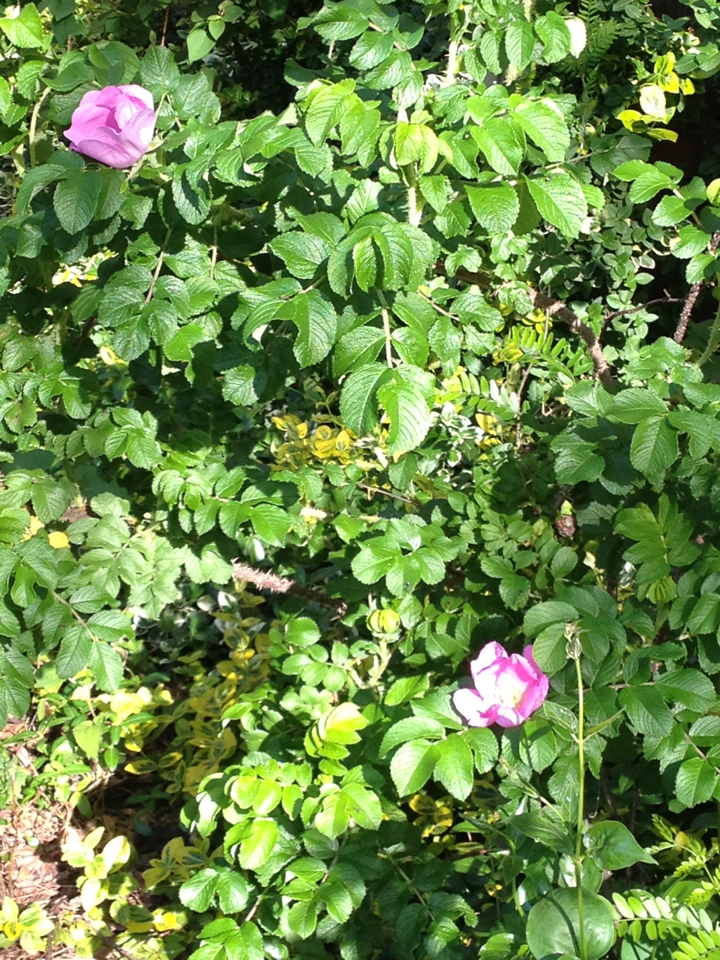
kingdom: Plantae
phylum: Tracheophyta
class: Magnoliopsida
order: Rosales
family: Rosaceae
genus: Rosa
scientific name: Rosa rugosa
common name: Japanese rose
